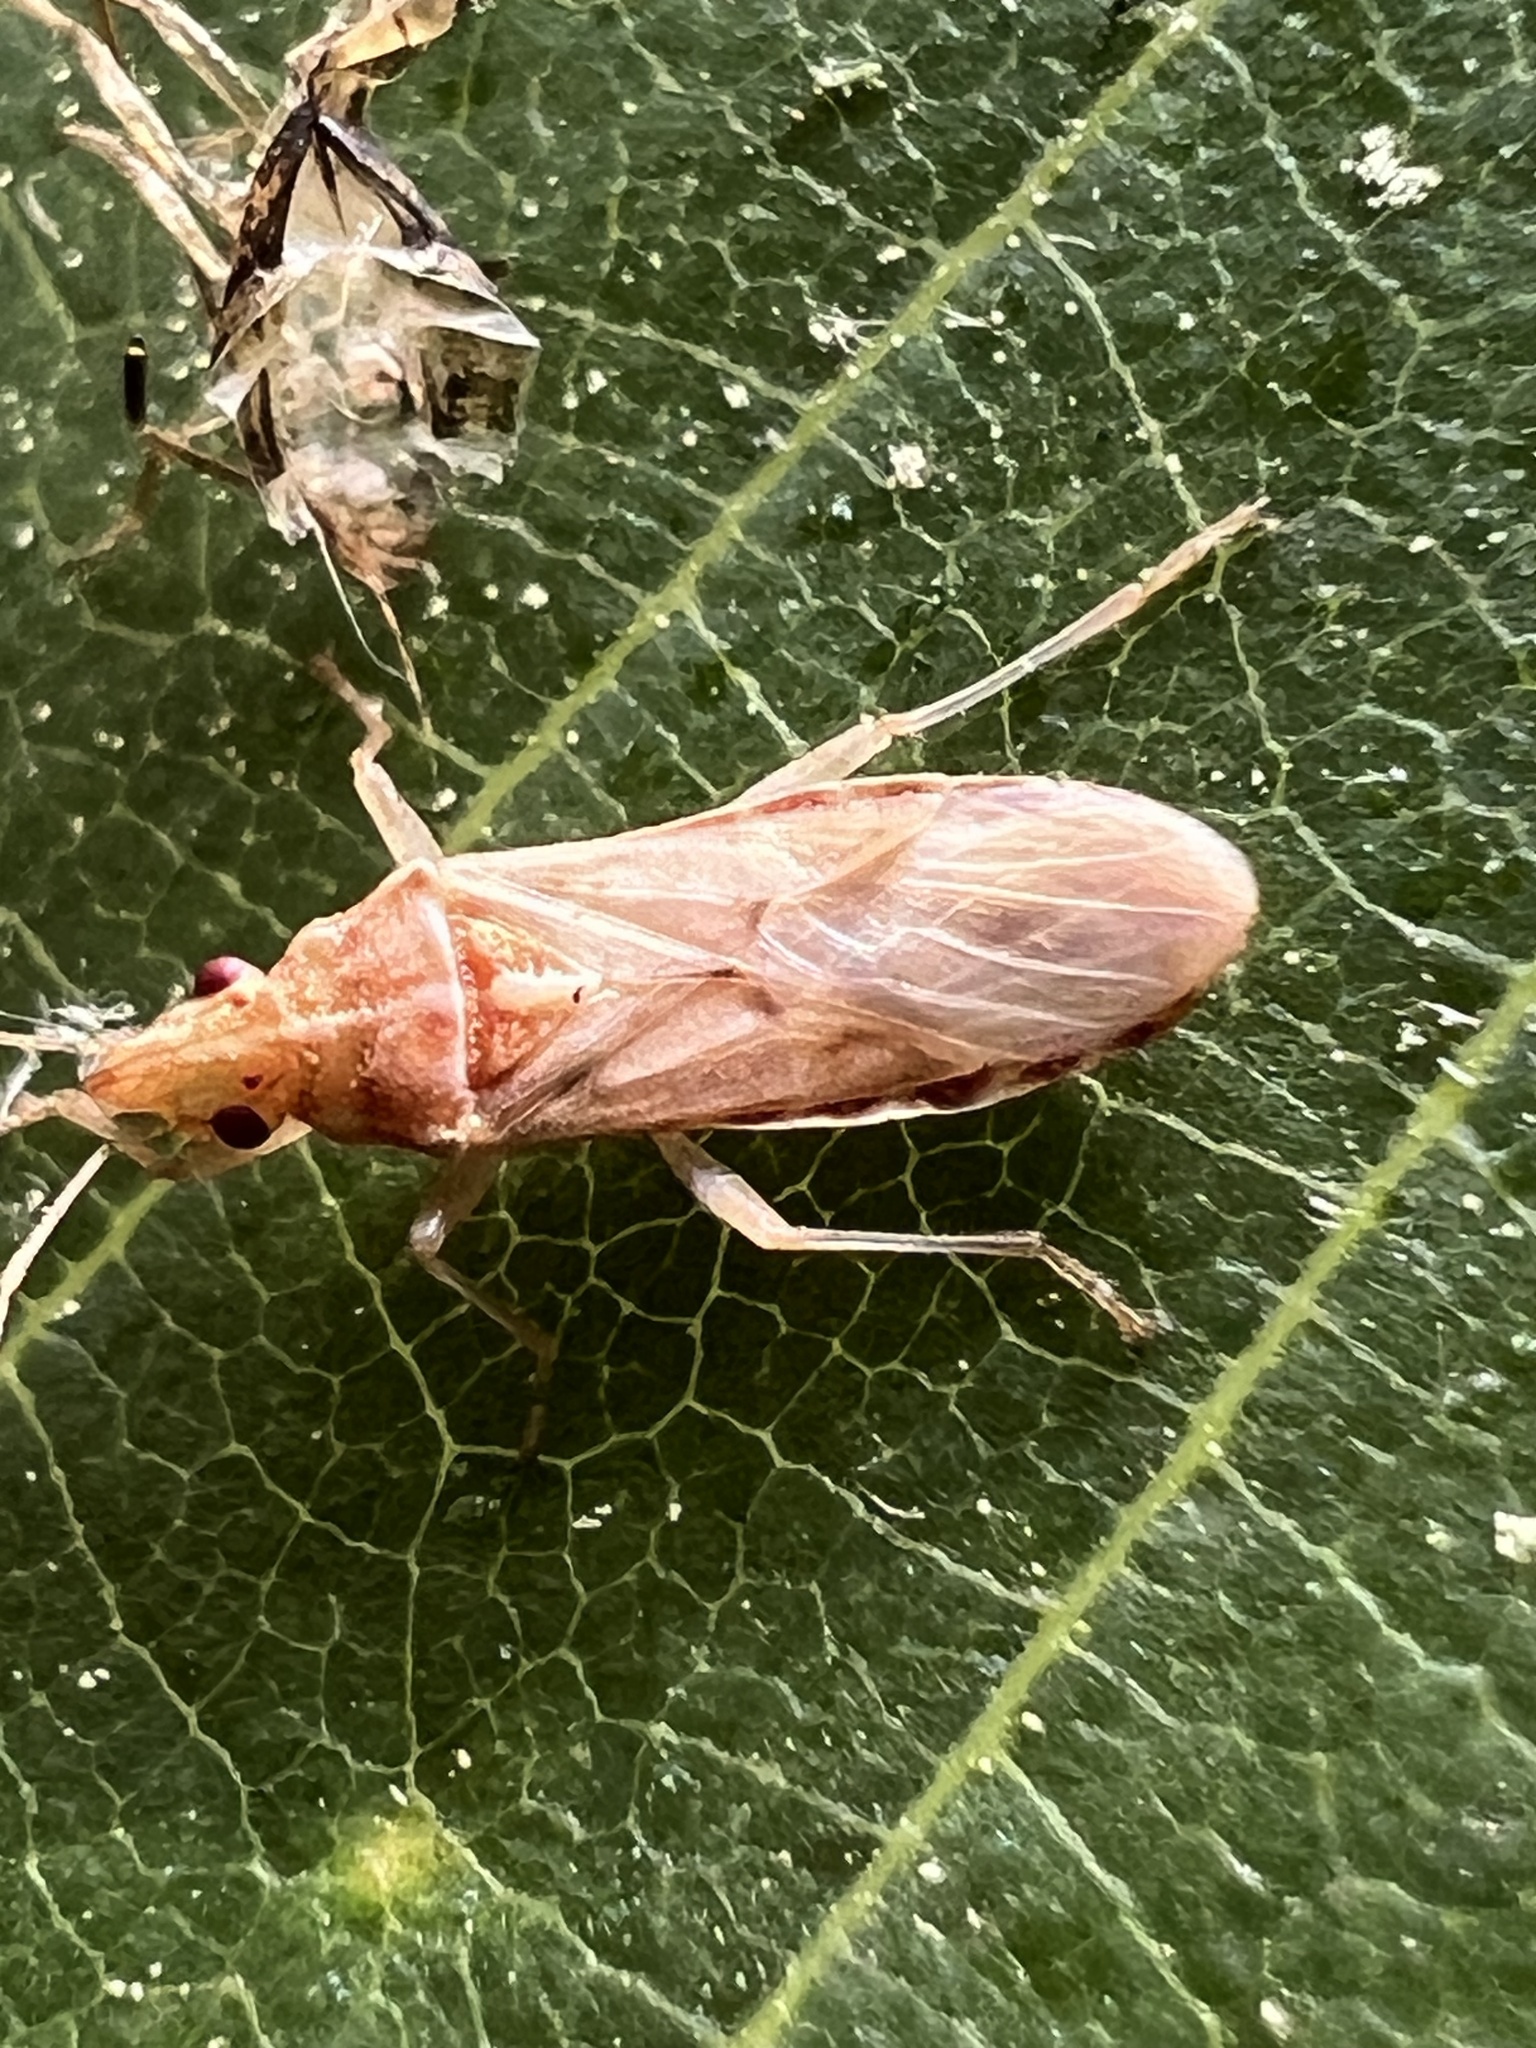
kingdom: Animalia
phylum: Arthropoda
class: Insecta
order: Hemiptera
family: Lygaeidae
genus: Belonochilus
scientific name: Belonochilus numenius
